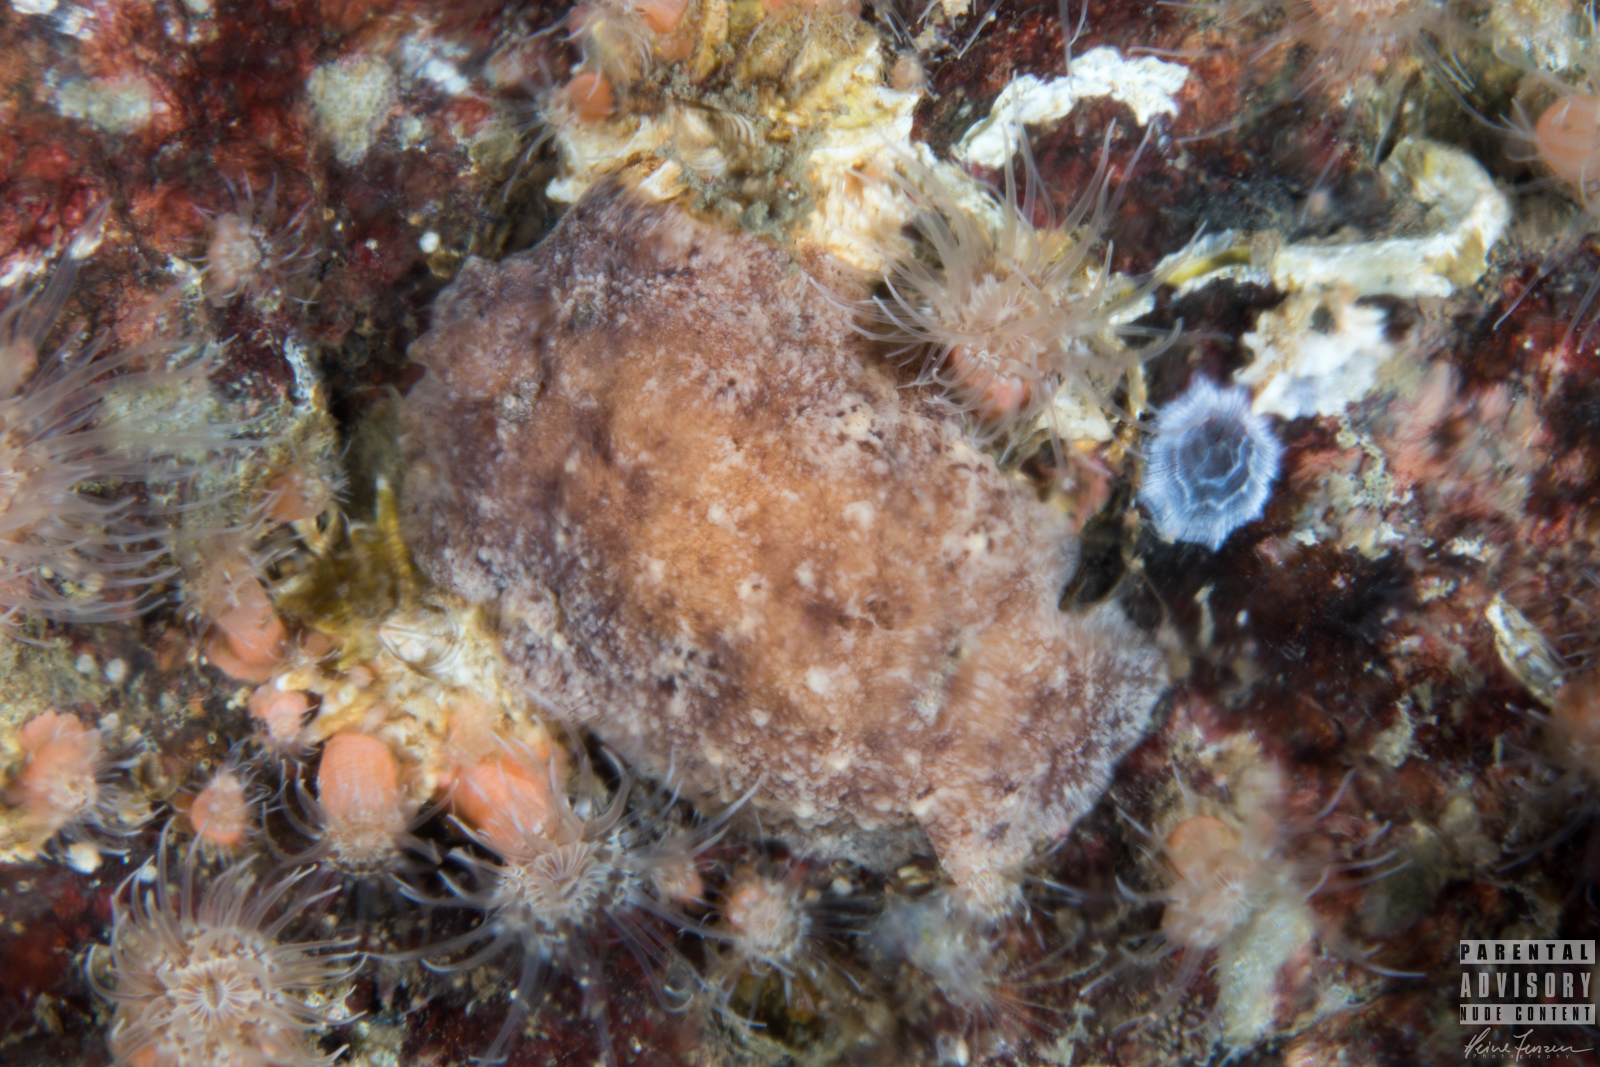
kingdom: Animalia
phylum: Mollusca
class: Gastropoda
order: Nudibranchia
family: Discodorididae
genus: Geitodoris
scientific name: Geitodoris planata
